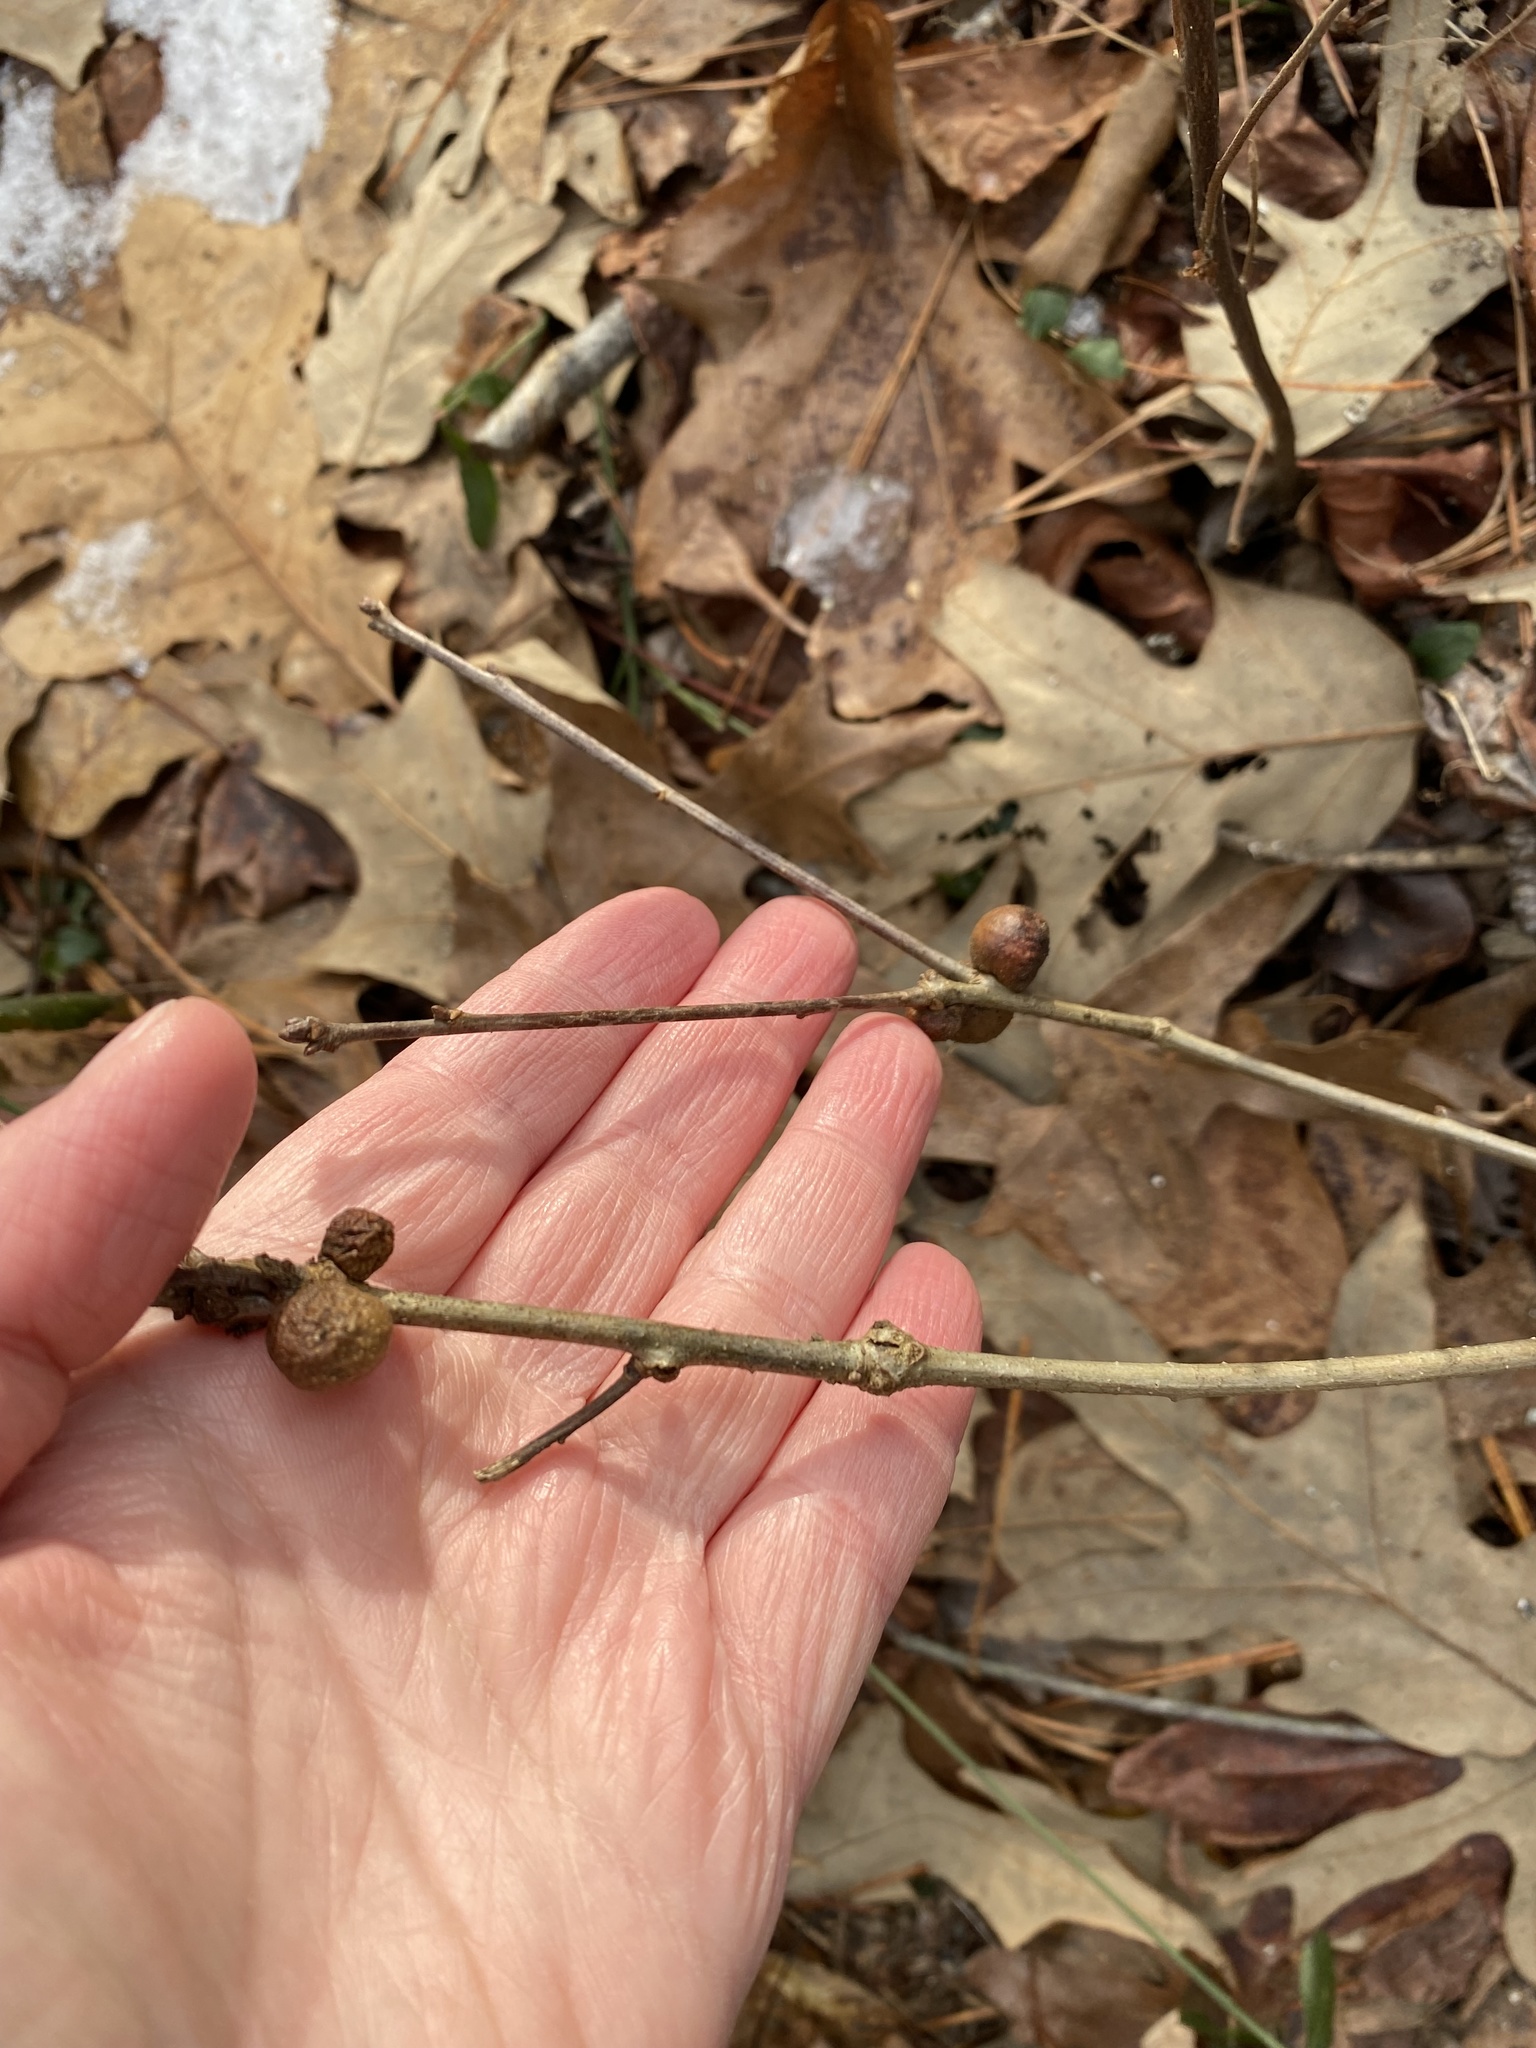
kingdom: Animalia
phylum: Arthropoda
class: Insecta
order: Hymenoptera
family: Cynipidae
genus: Disholcaspis
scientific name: Disholcaspis quercusglobulus
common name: Round bullet gall wasp
